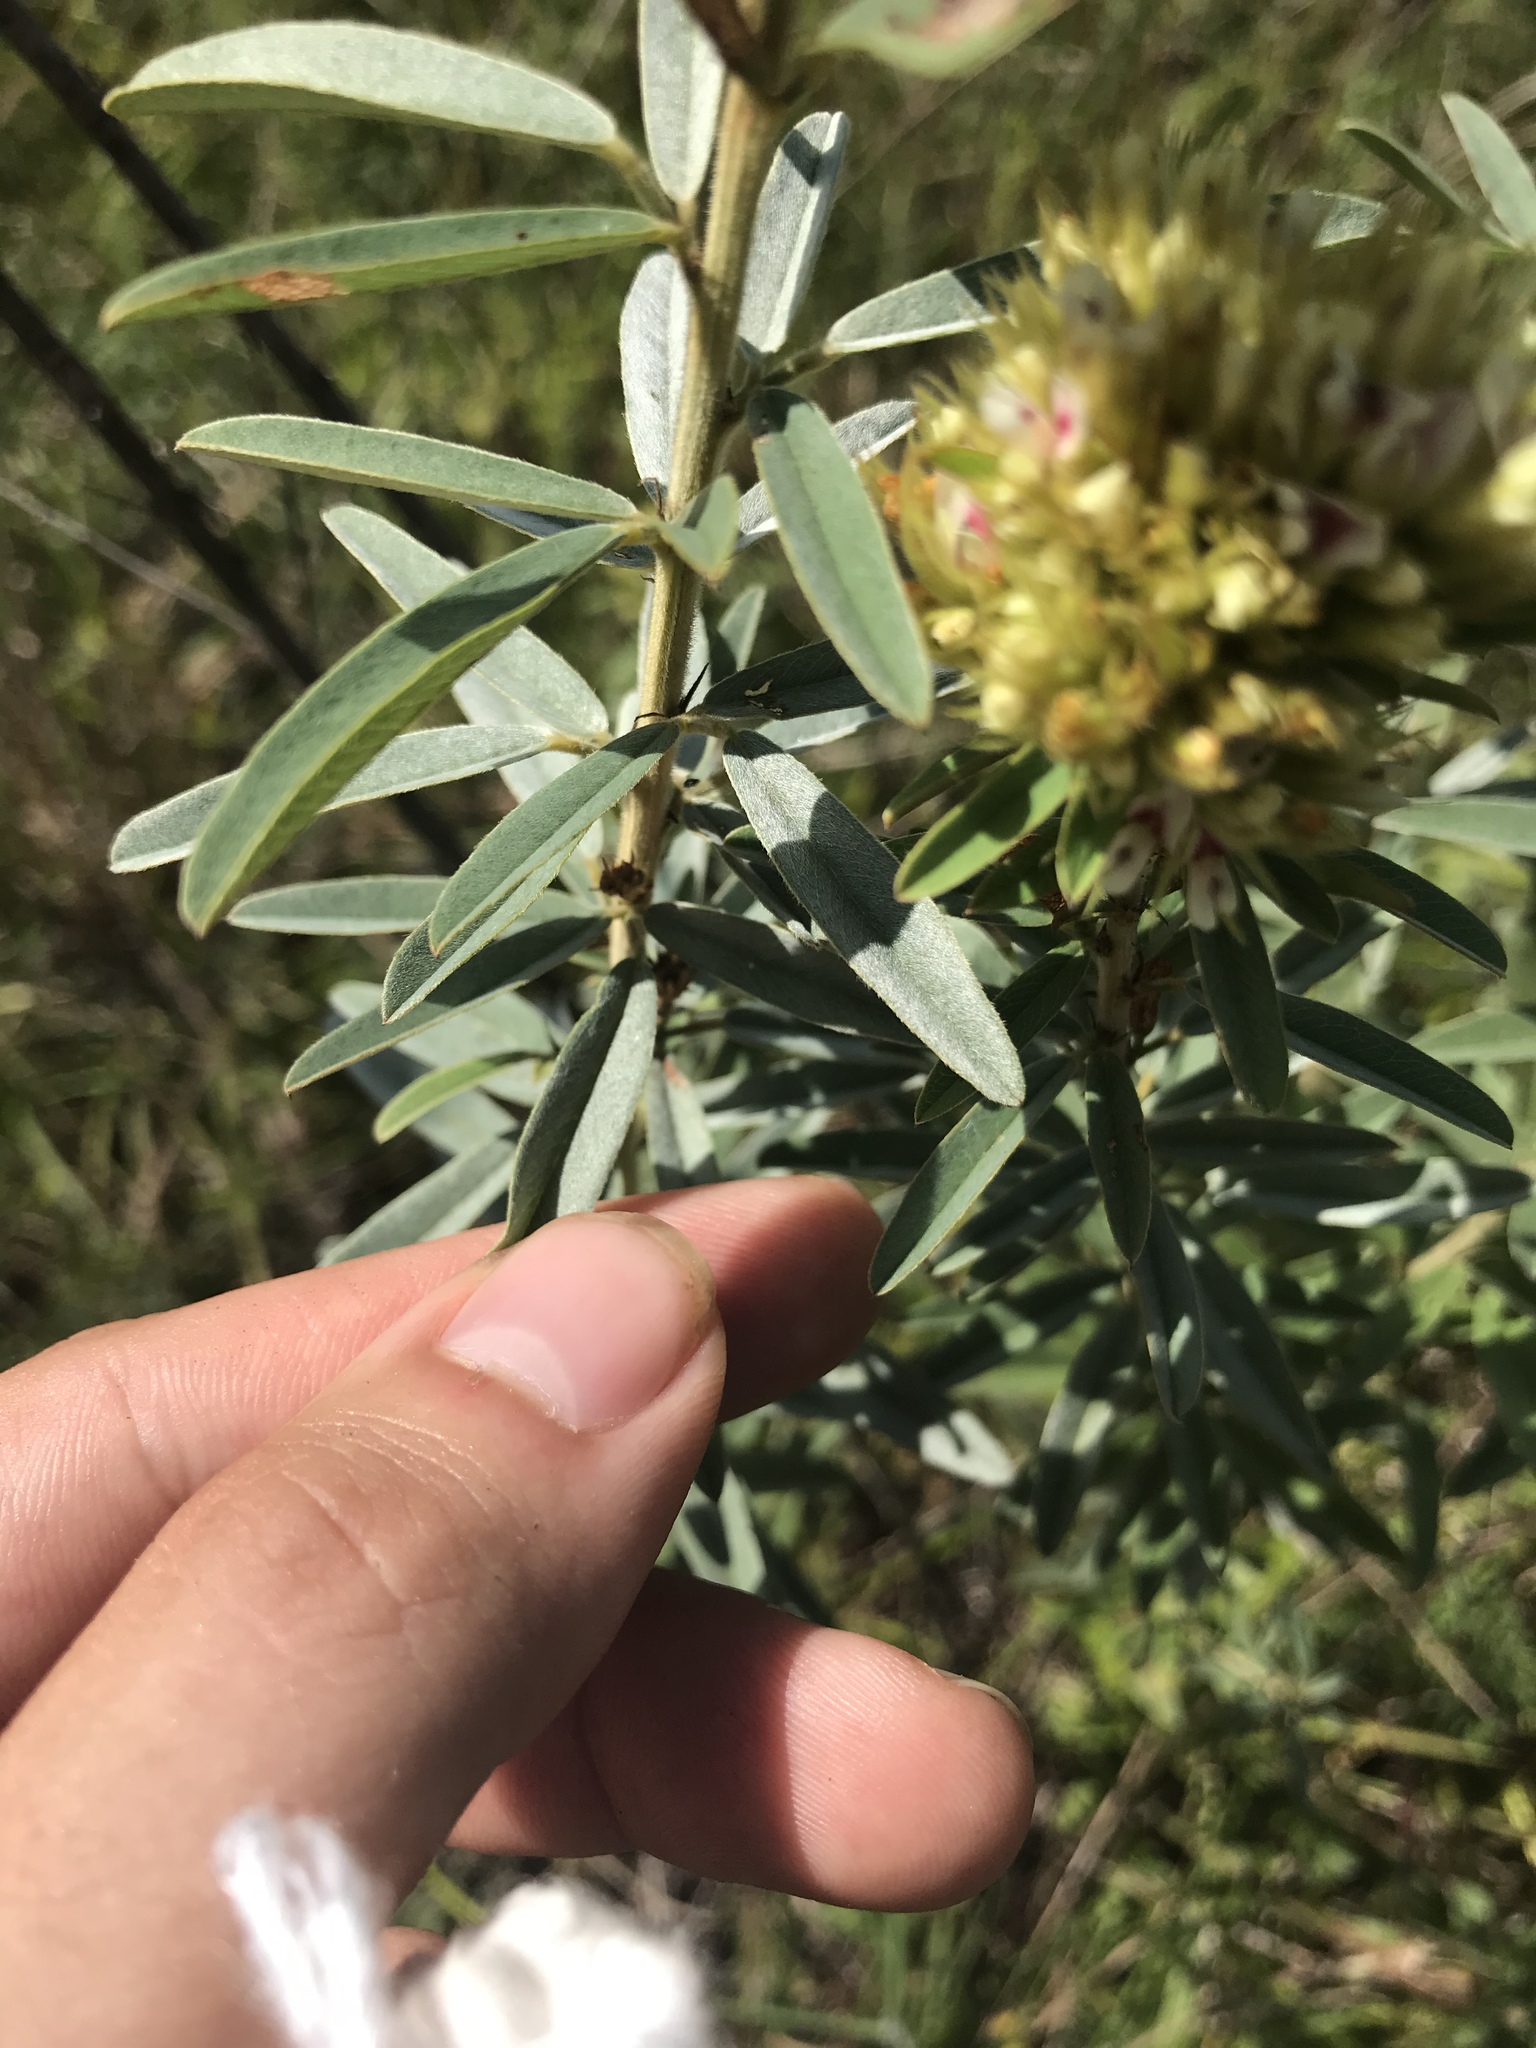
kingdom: Plantae
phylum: Tracheophyta
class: Magnoliopsida
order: Fabales
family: Fabaceae
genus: Lespedeza
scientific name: Lespedeza capitata
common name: Dusty clover
